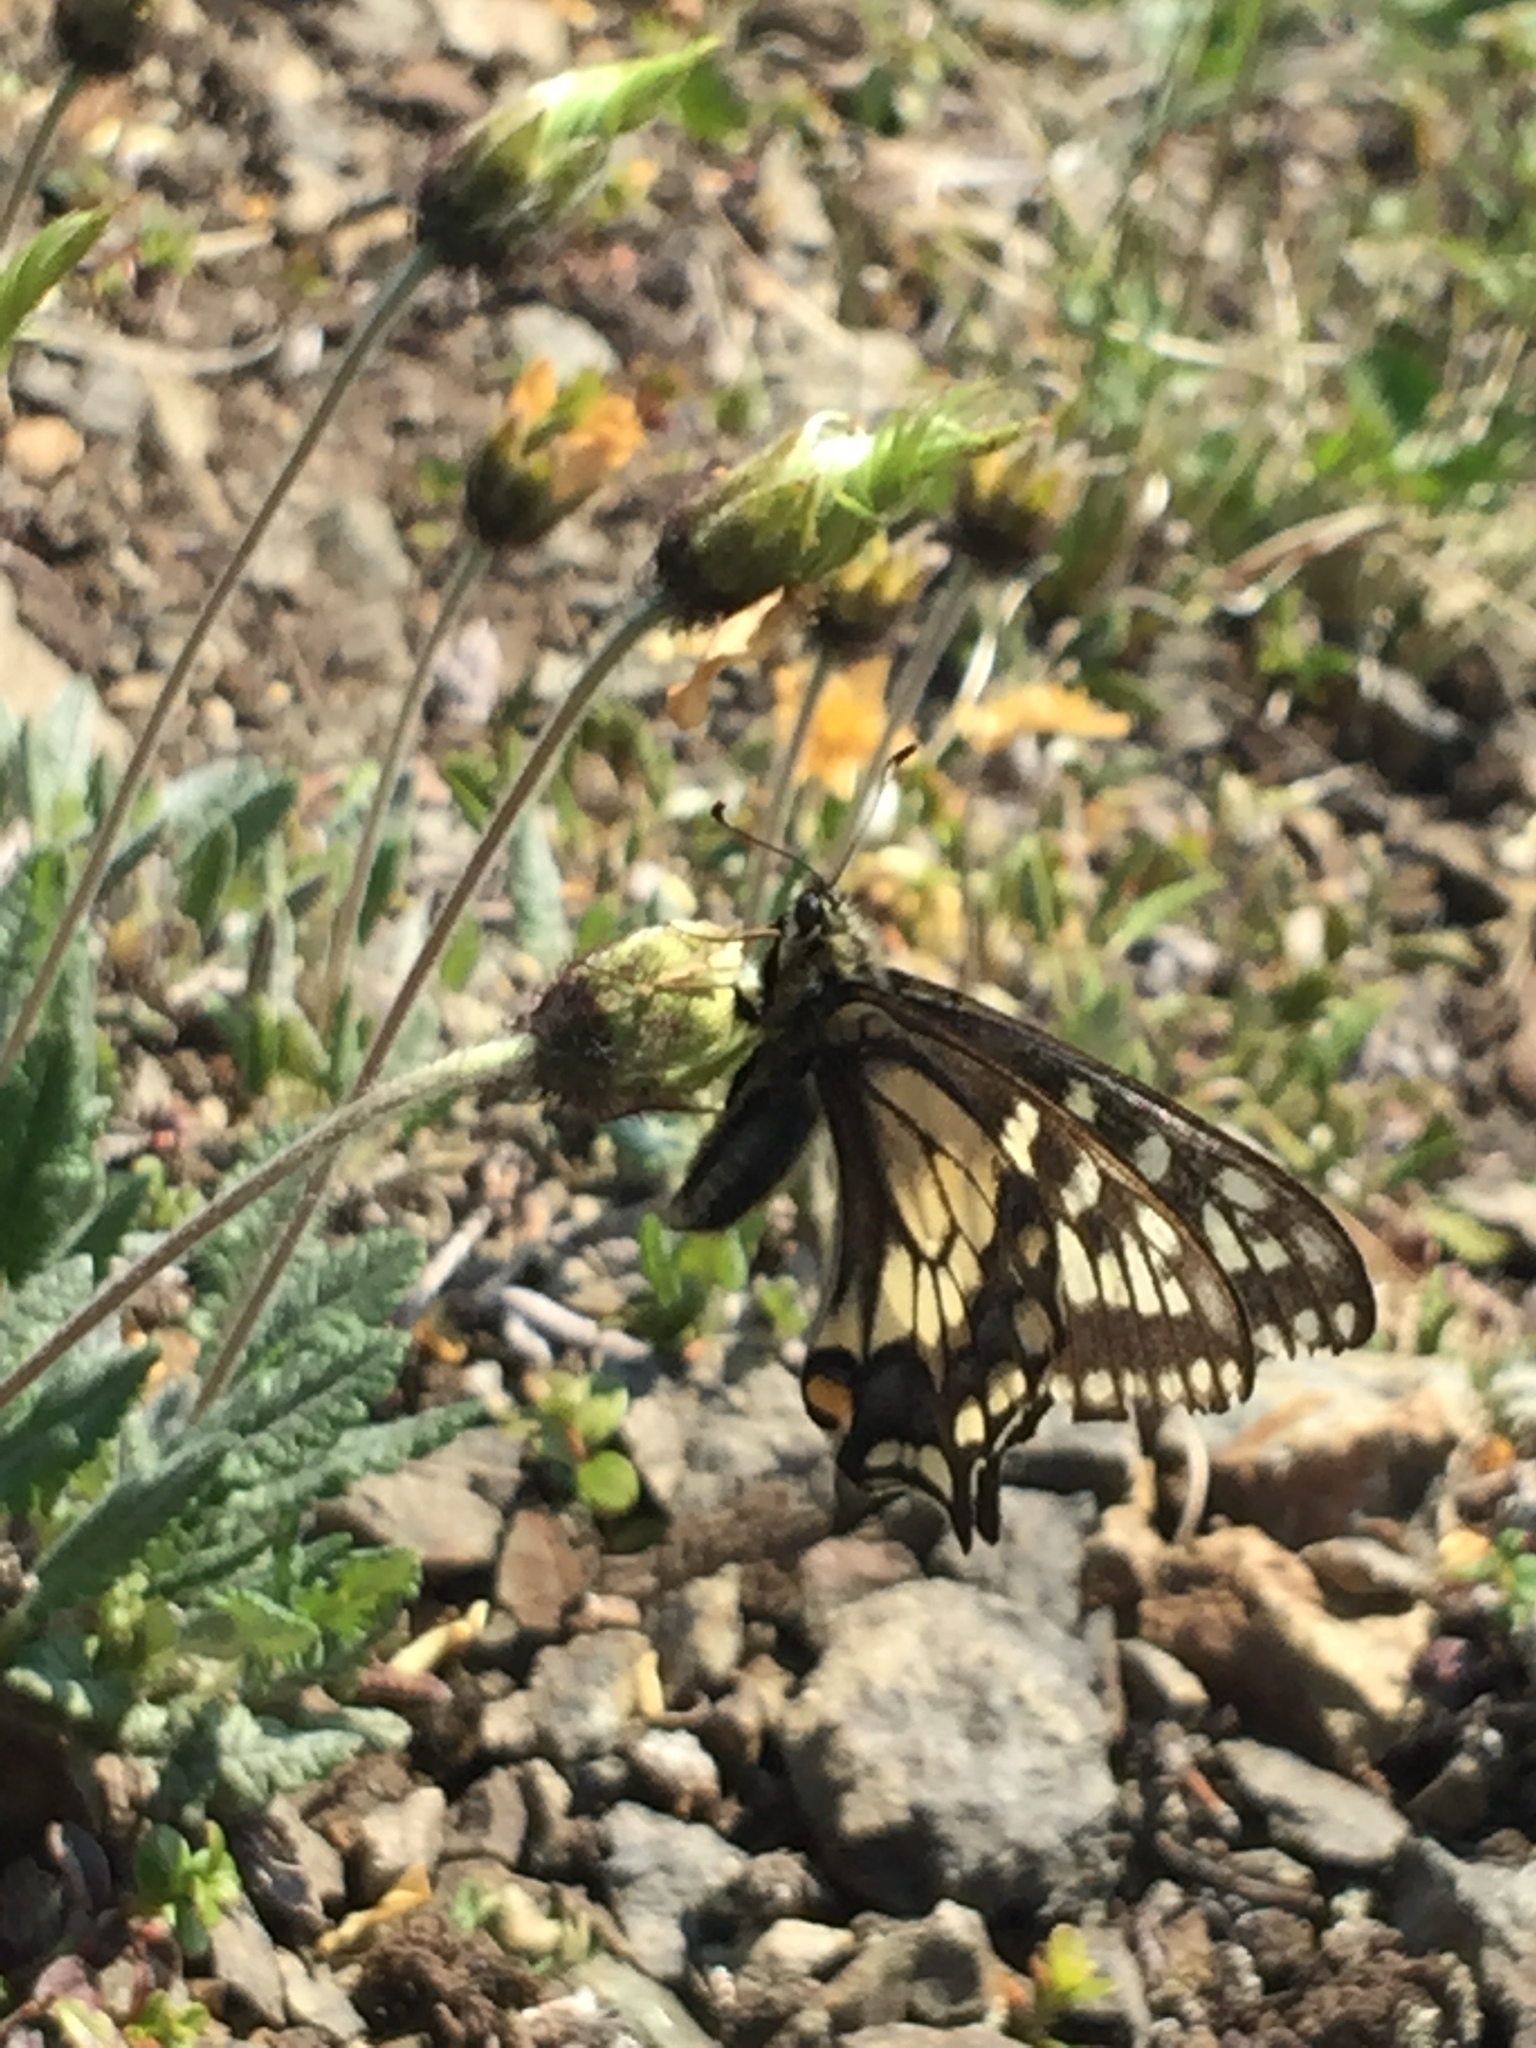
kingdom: Animalia
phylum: Arthropoda
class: Insecta
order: Lepidoptera
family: Papilionidae
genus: Papilio
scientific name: Papilio machaon
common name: Swallowtail
